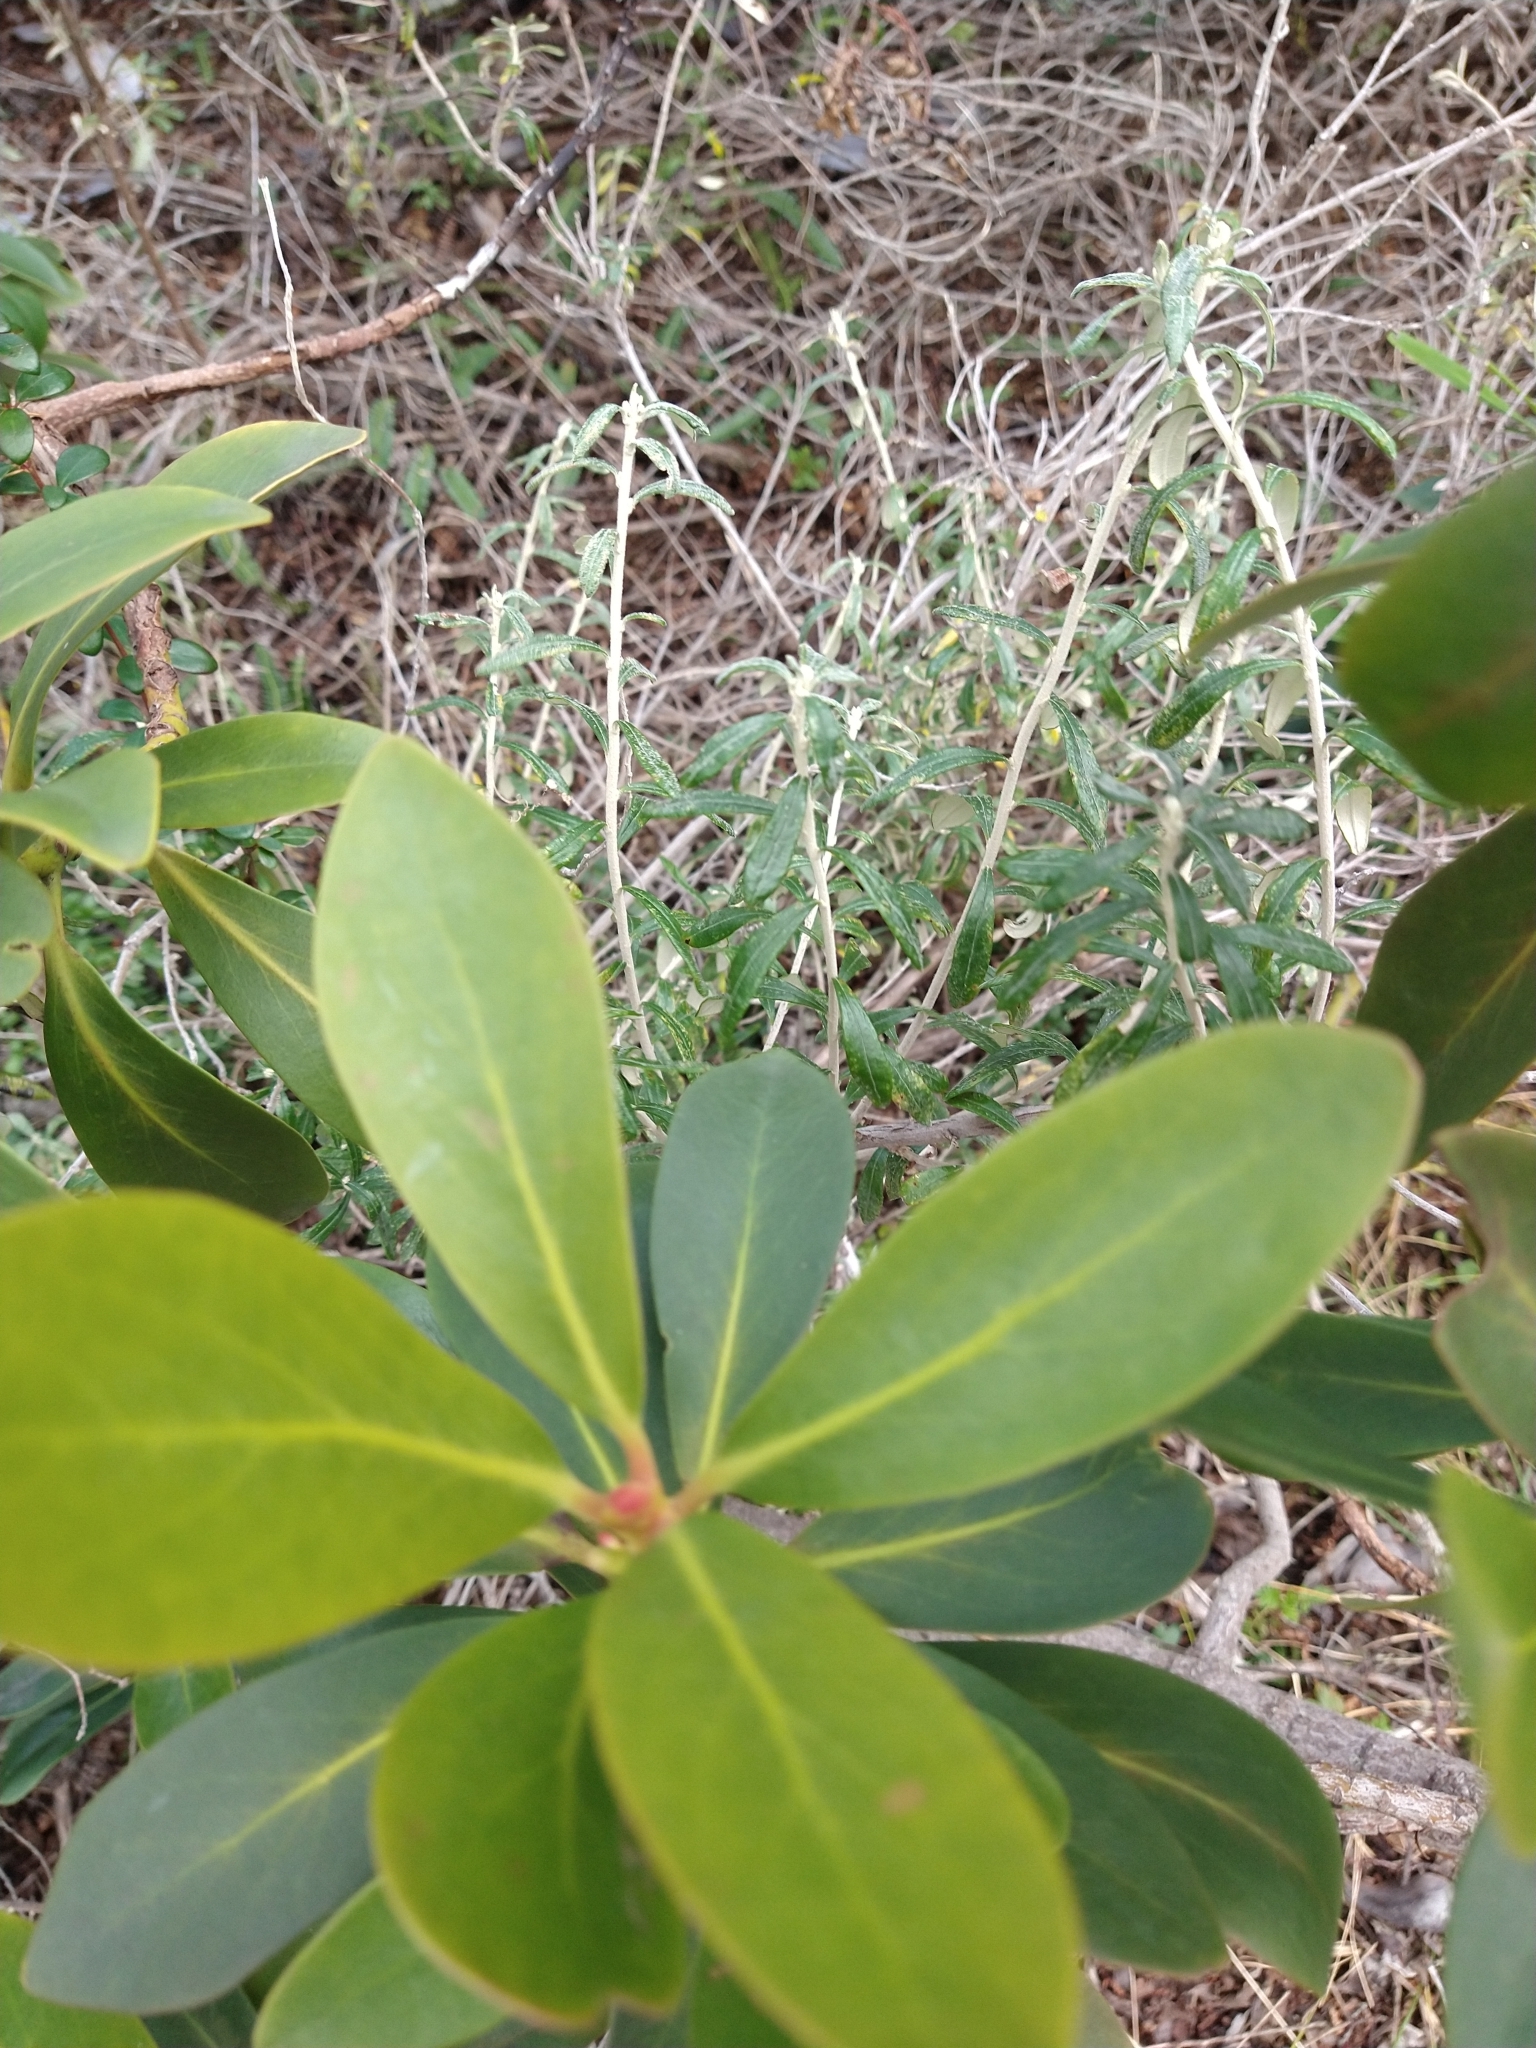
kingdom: Plantae
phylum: Tracheophyta
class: Magnoliopsida
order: Canellales
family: Winteraceae
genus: Drimys
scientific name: Drimys winteri
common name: Winter's-bark
